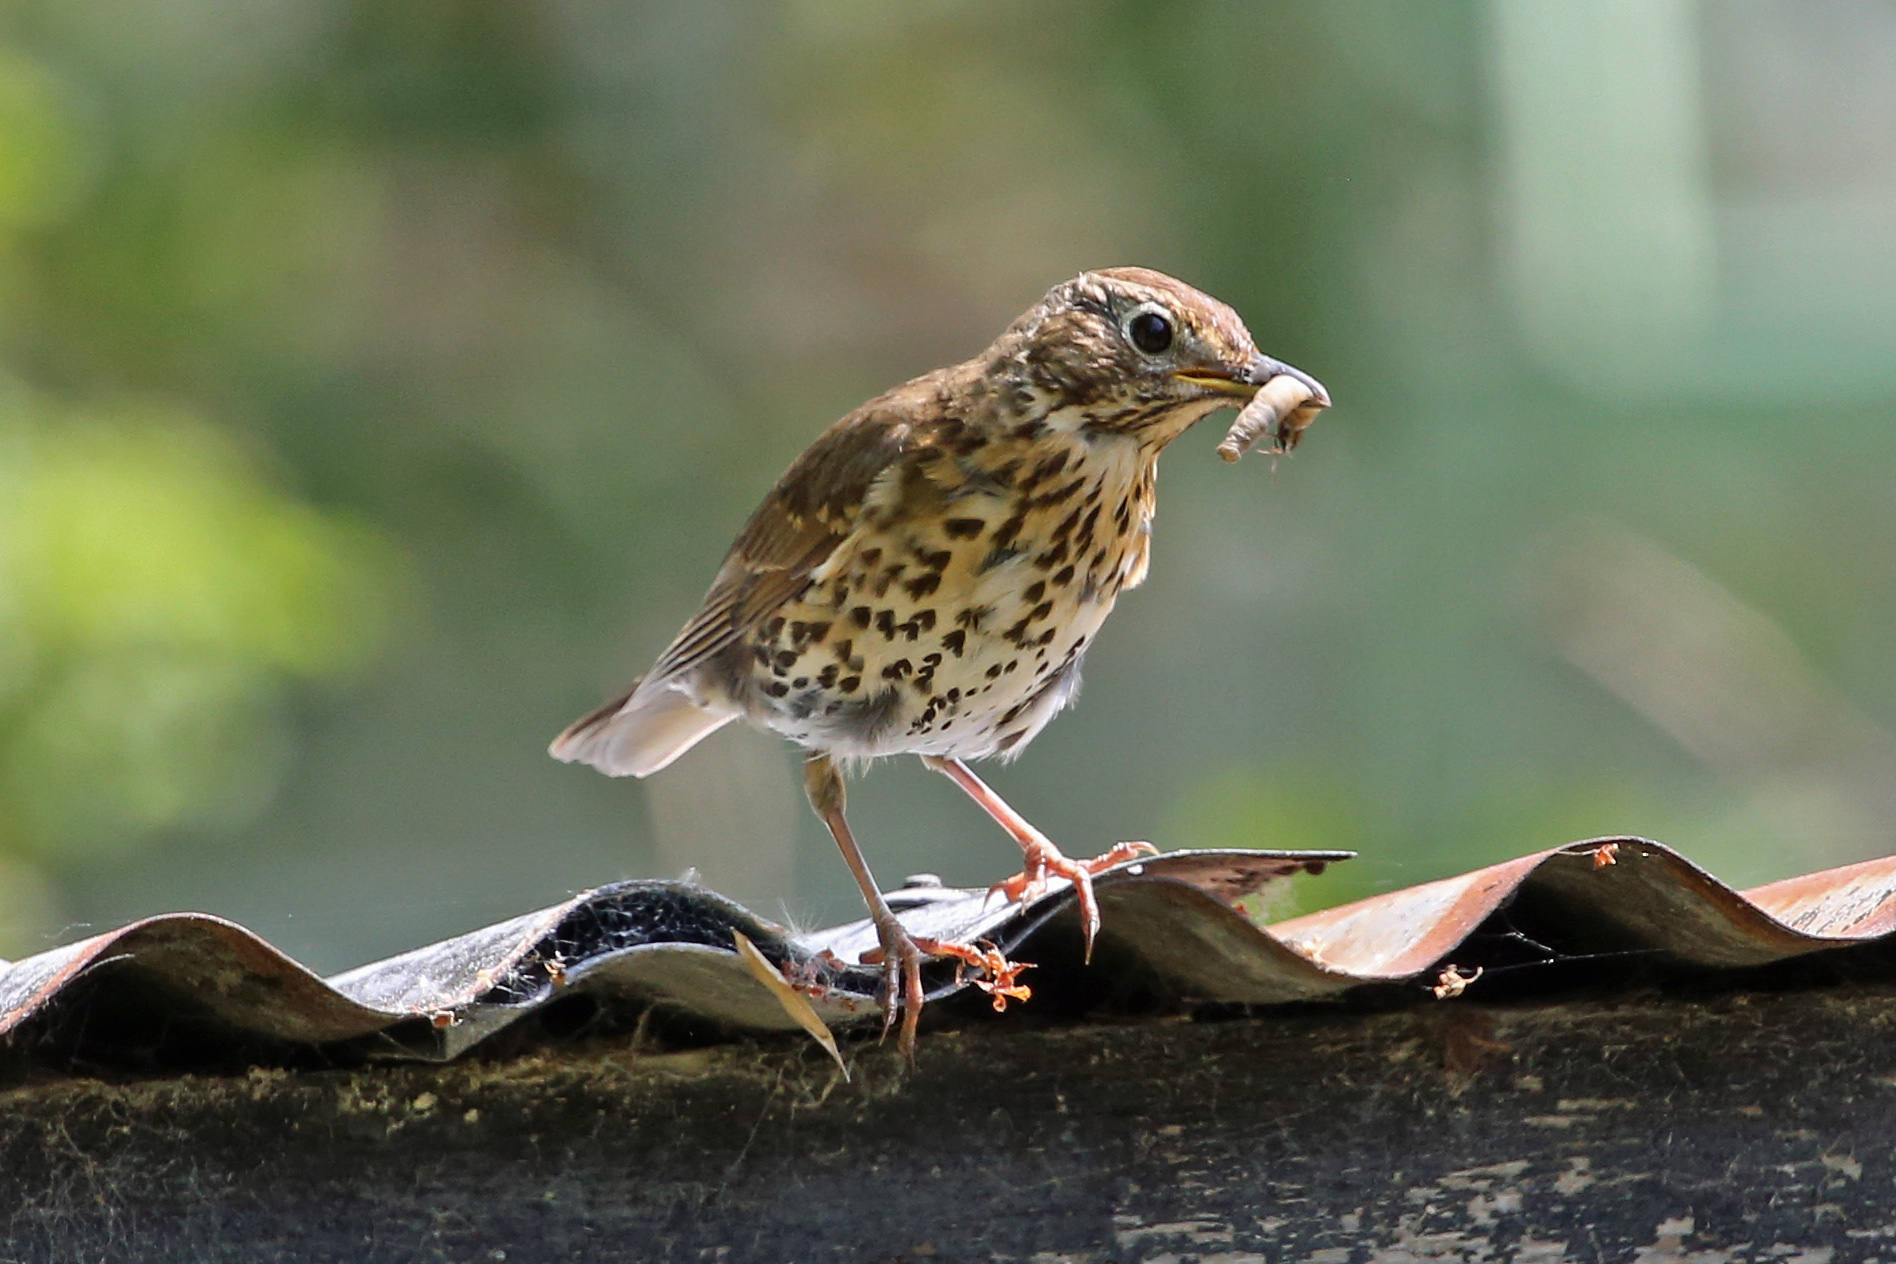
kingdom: Animalia
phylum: Chordata
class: Aves
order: Passeriformes
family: Turdidae
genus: Turdus
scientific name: Turdus philomelos
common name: Song thrush
